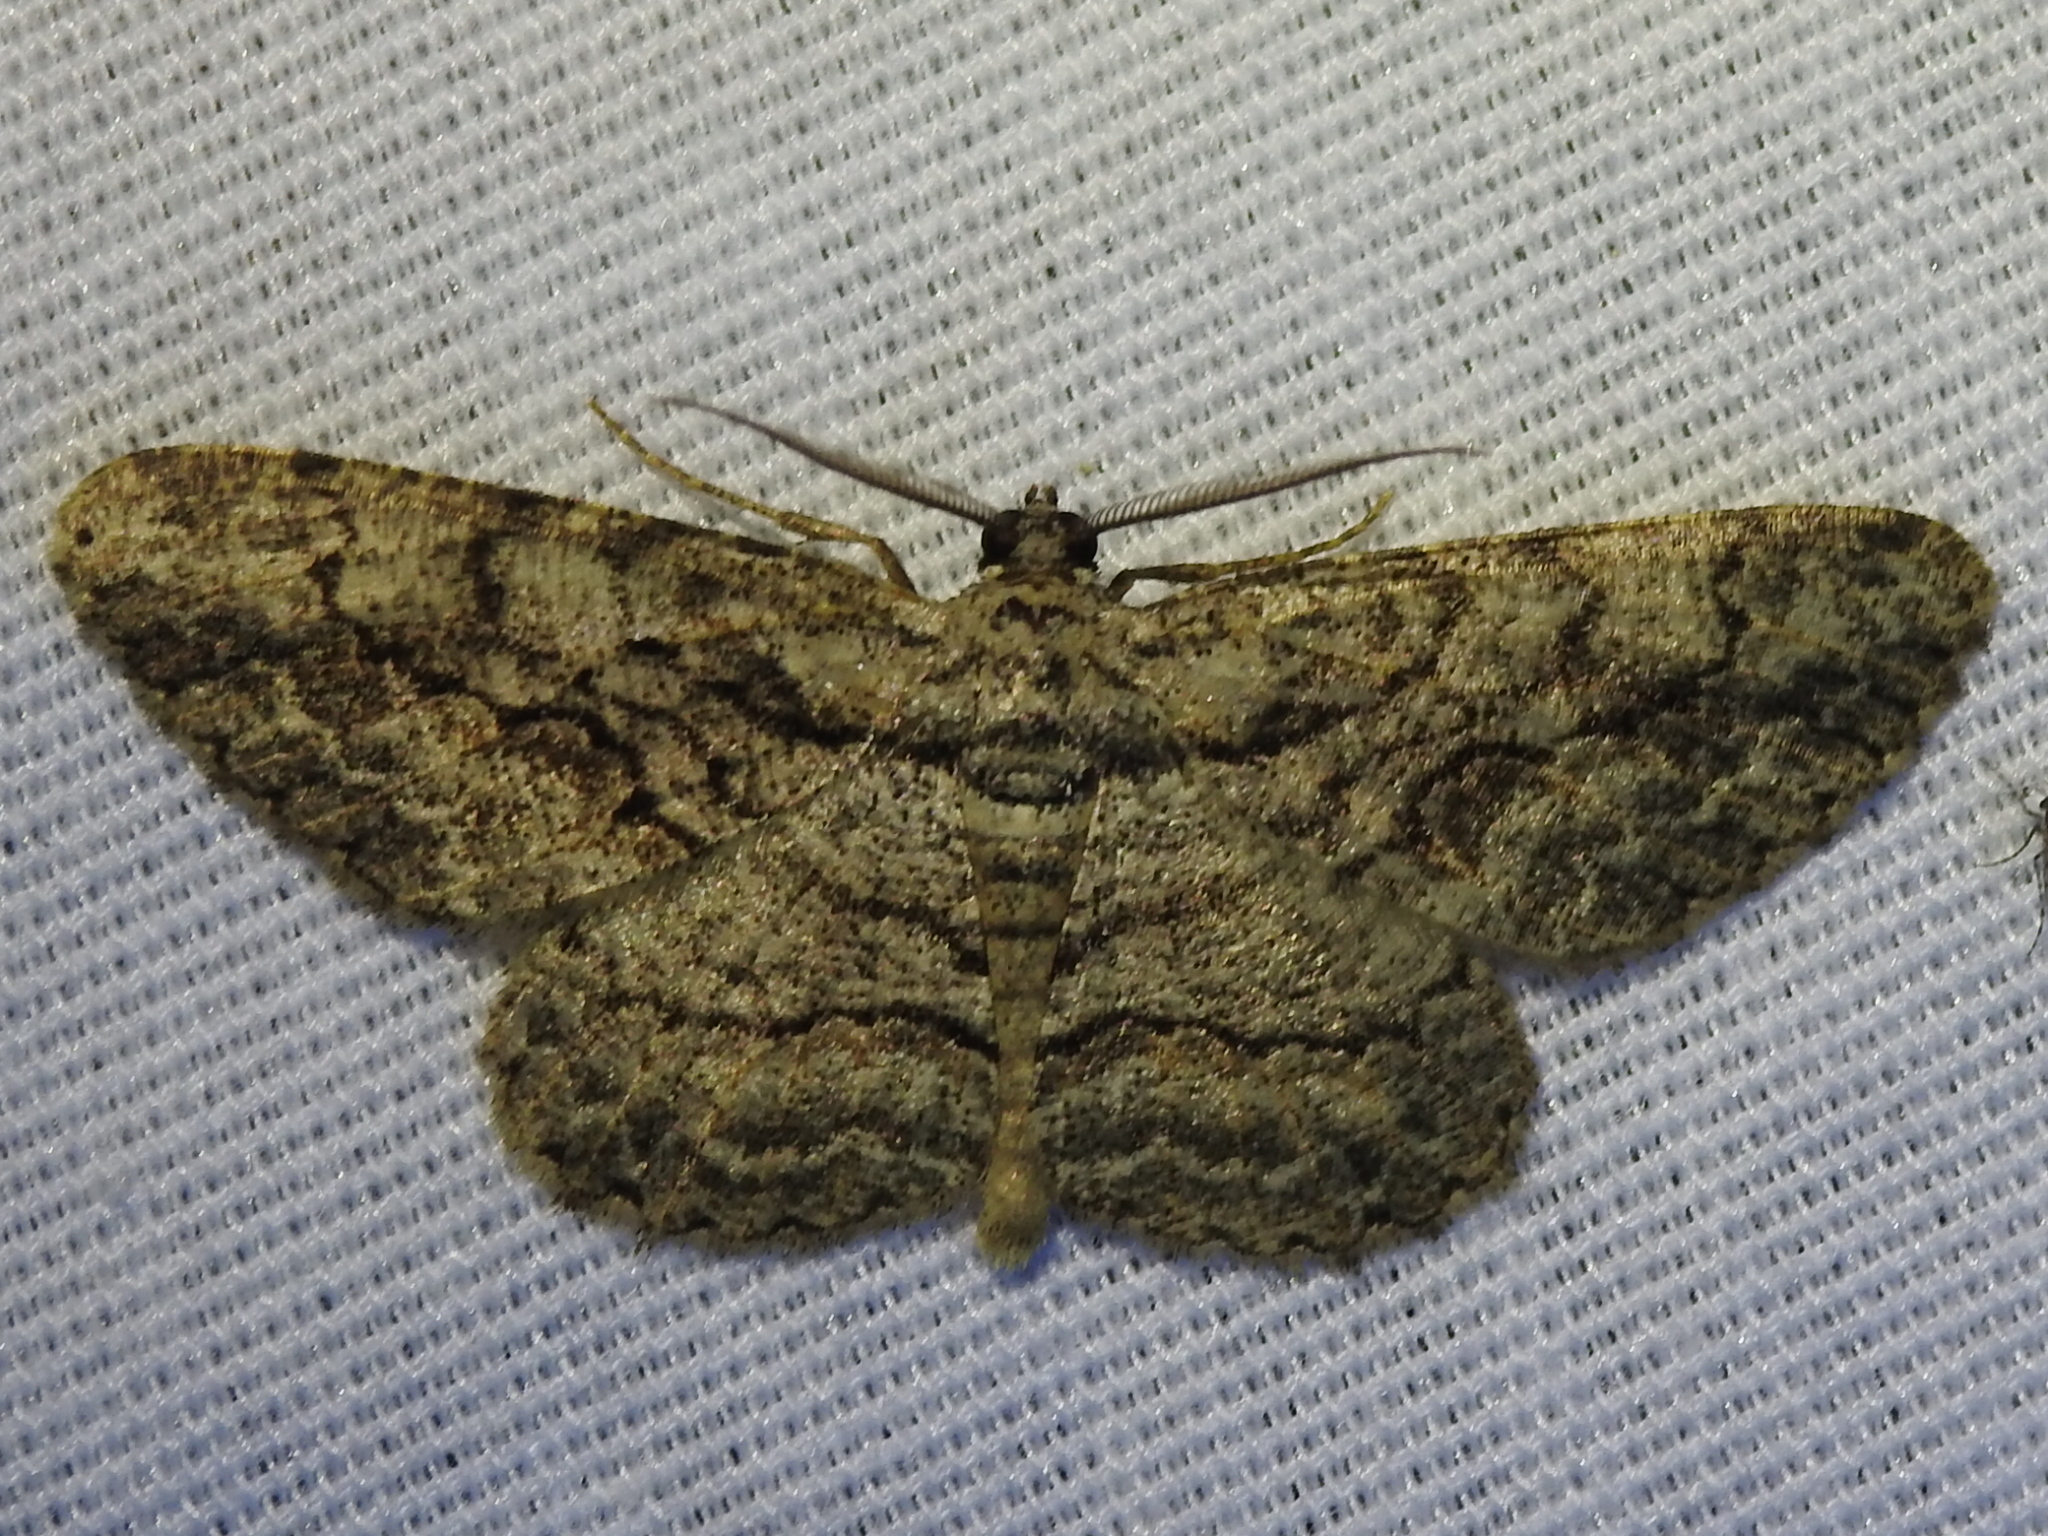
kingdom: Animalia
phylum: Arthropoda
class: Insecta
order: Lepidoptera
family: Geometridae
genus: Anavitrinella
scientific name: Anavitrinella pampinaria
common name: Common gray
